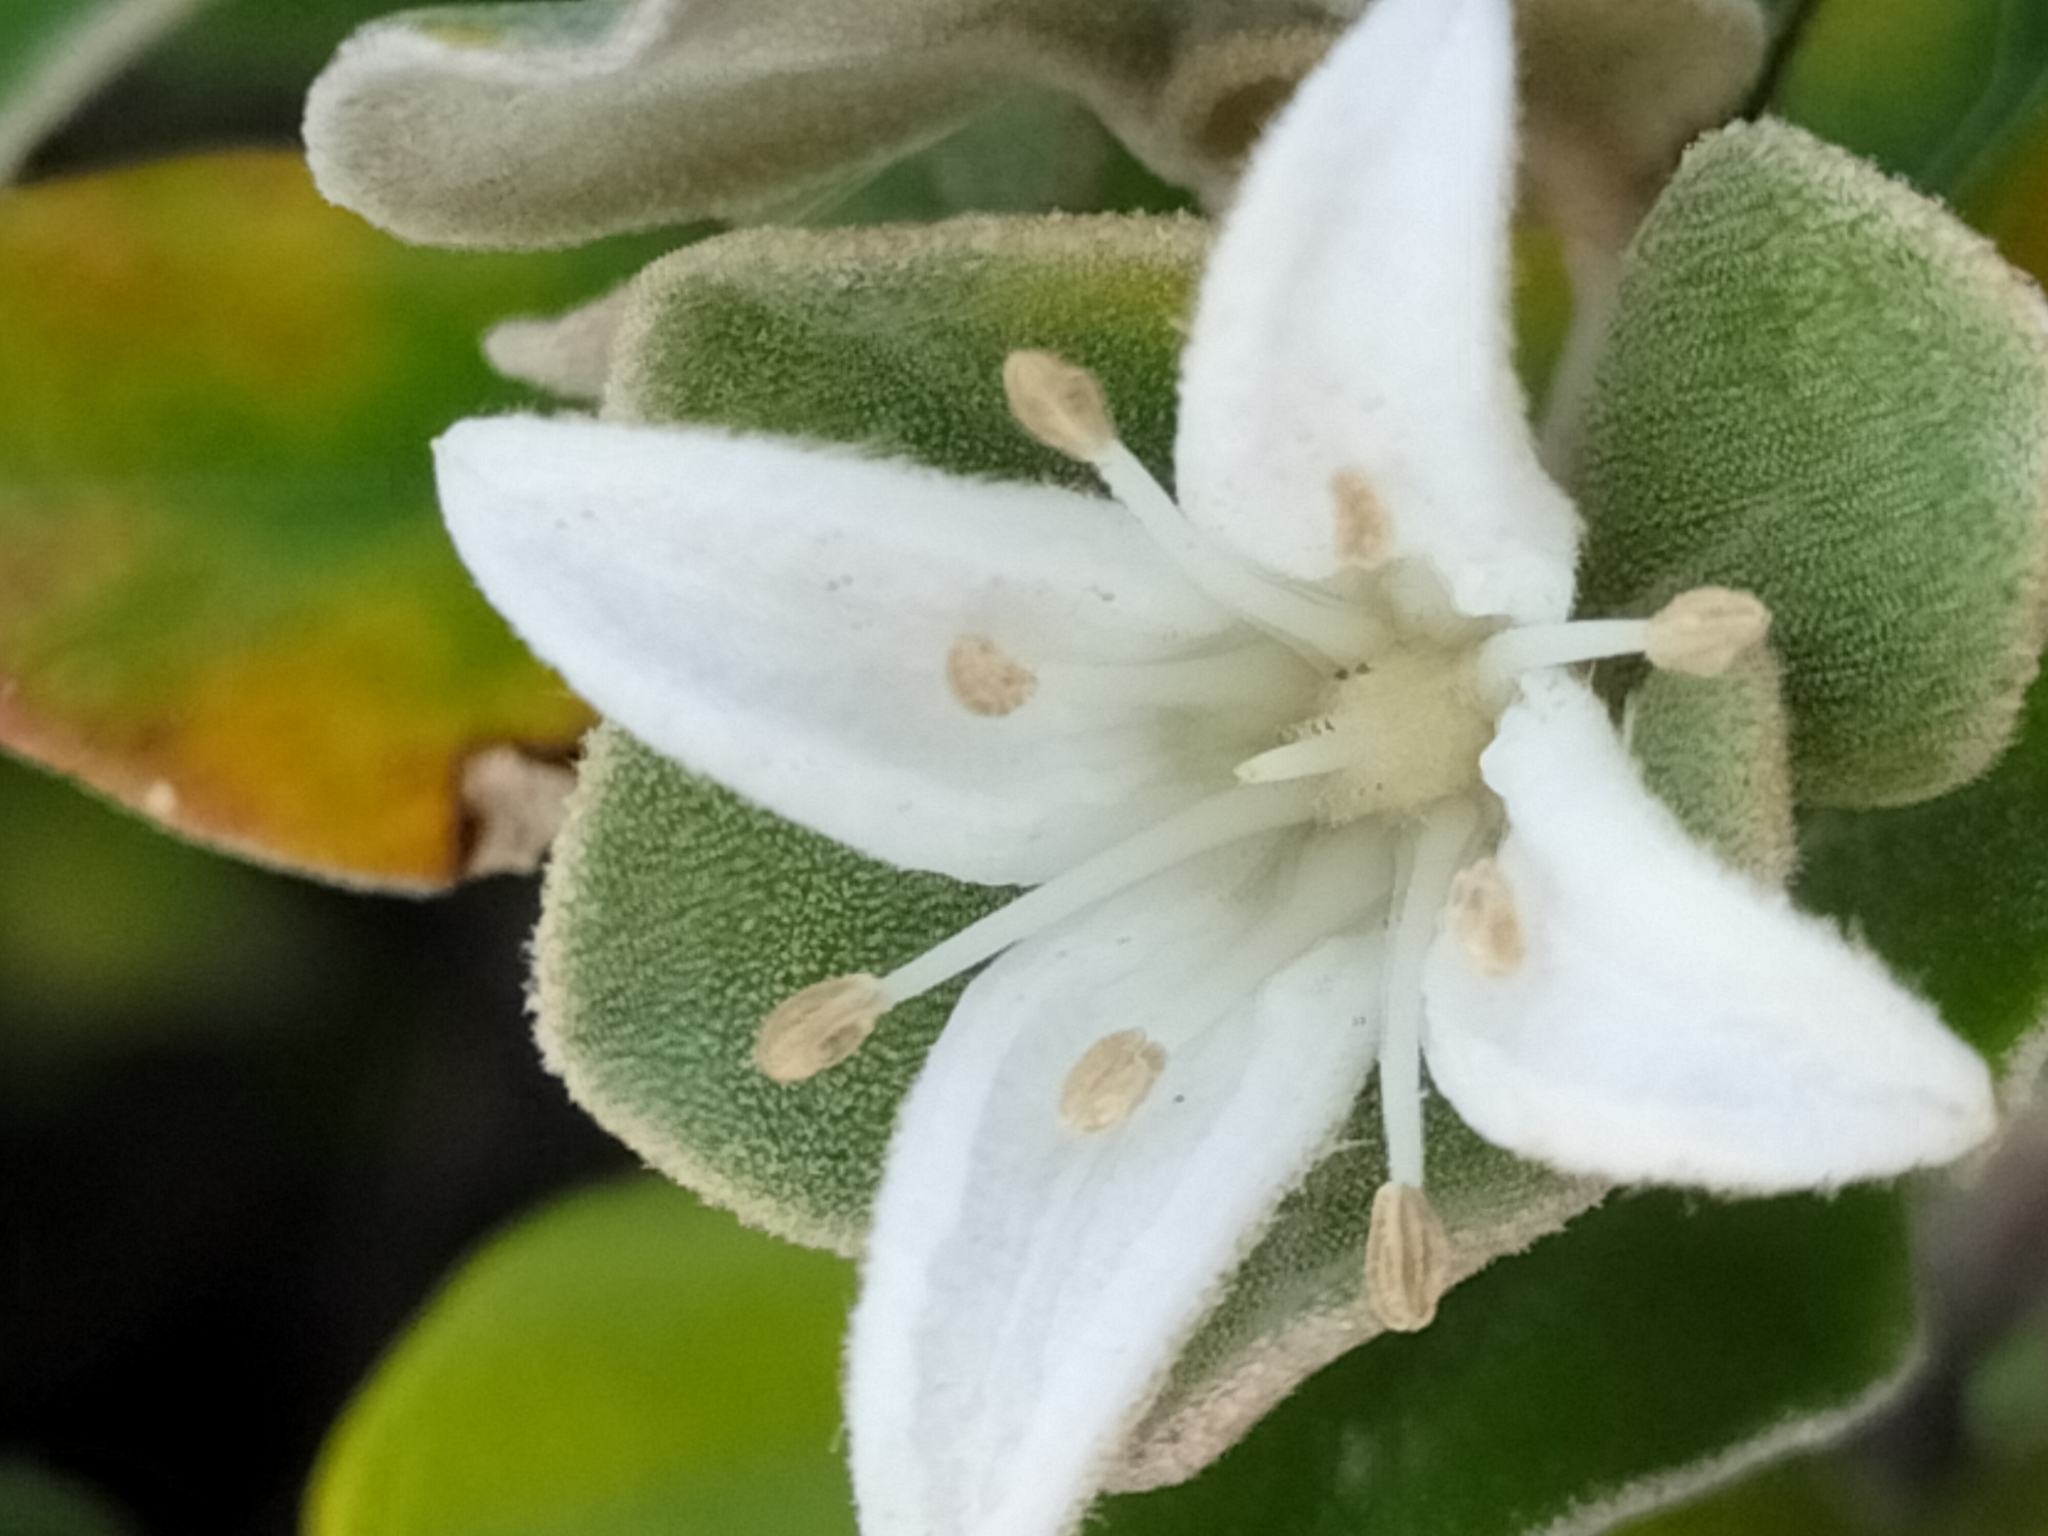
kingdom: Plantae
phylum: Tracheophyta
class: Magnoliopsida
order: Sapindales
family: Rutaceae
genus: Correa
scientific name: Correa alba
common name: White correa
